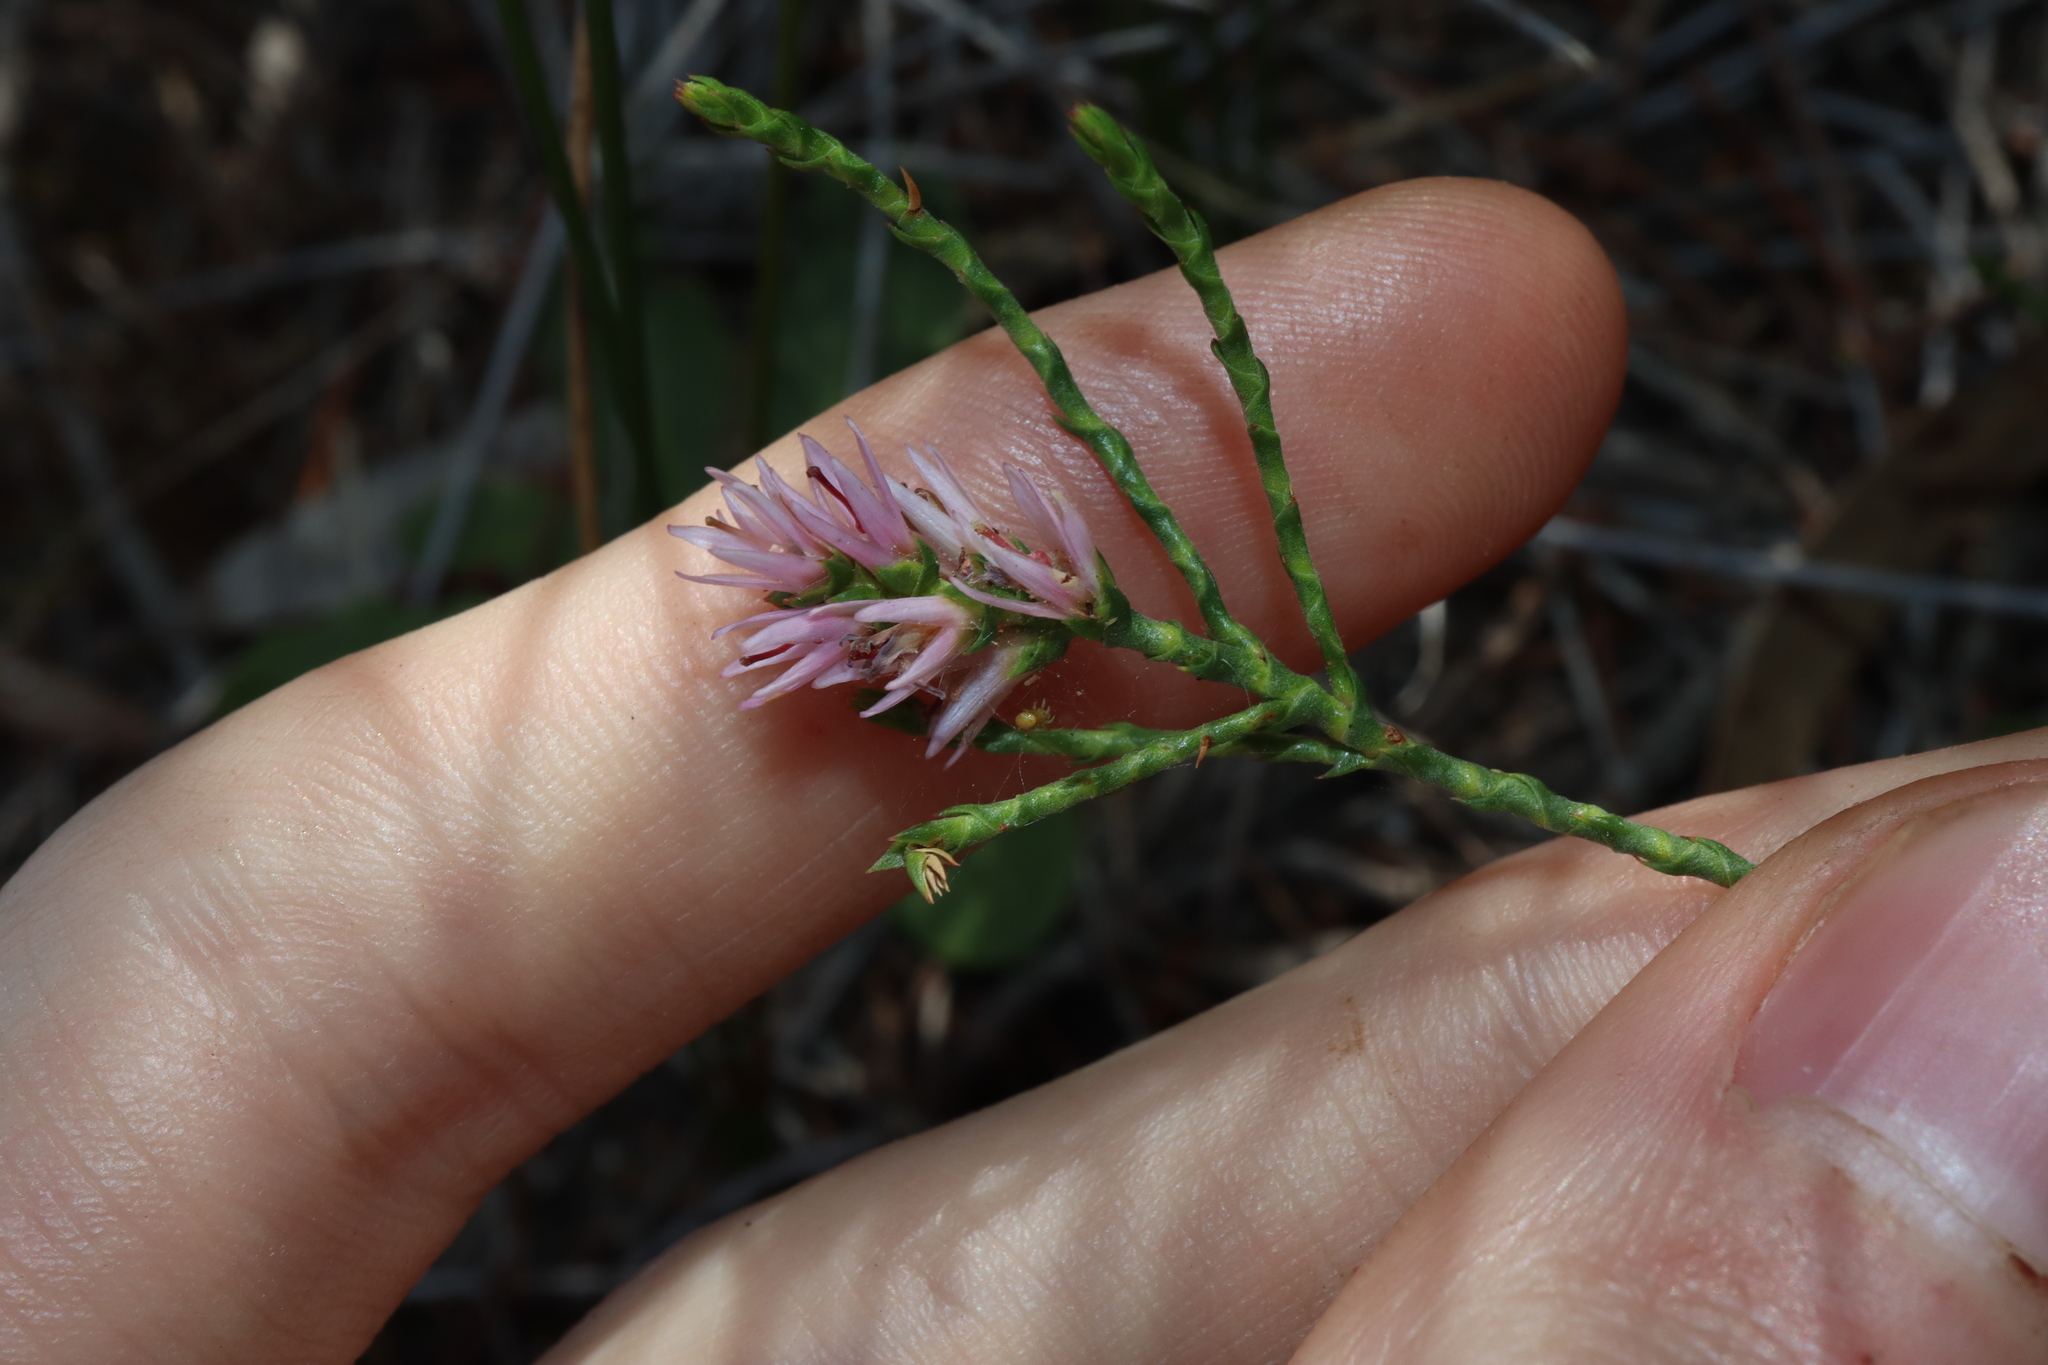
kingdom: Plantae
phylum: Tracheophyta
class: Magnoliopsida
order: Ericales
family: Ericaceae
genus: Andersonia
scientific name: Andersonia parvifolia
